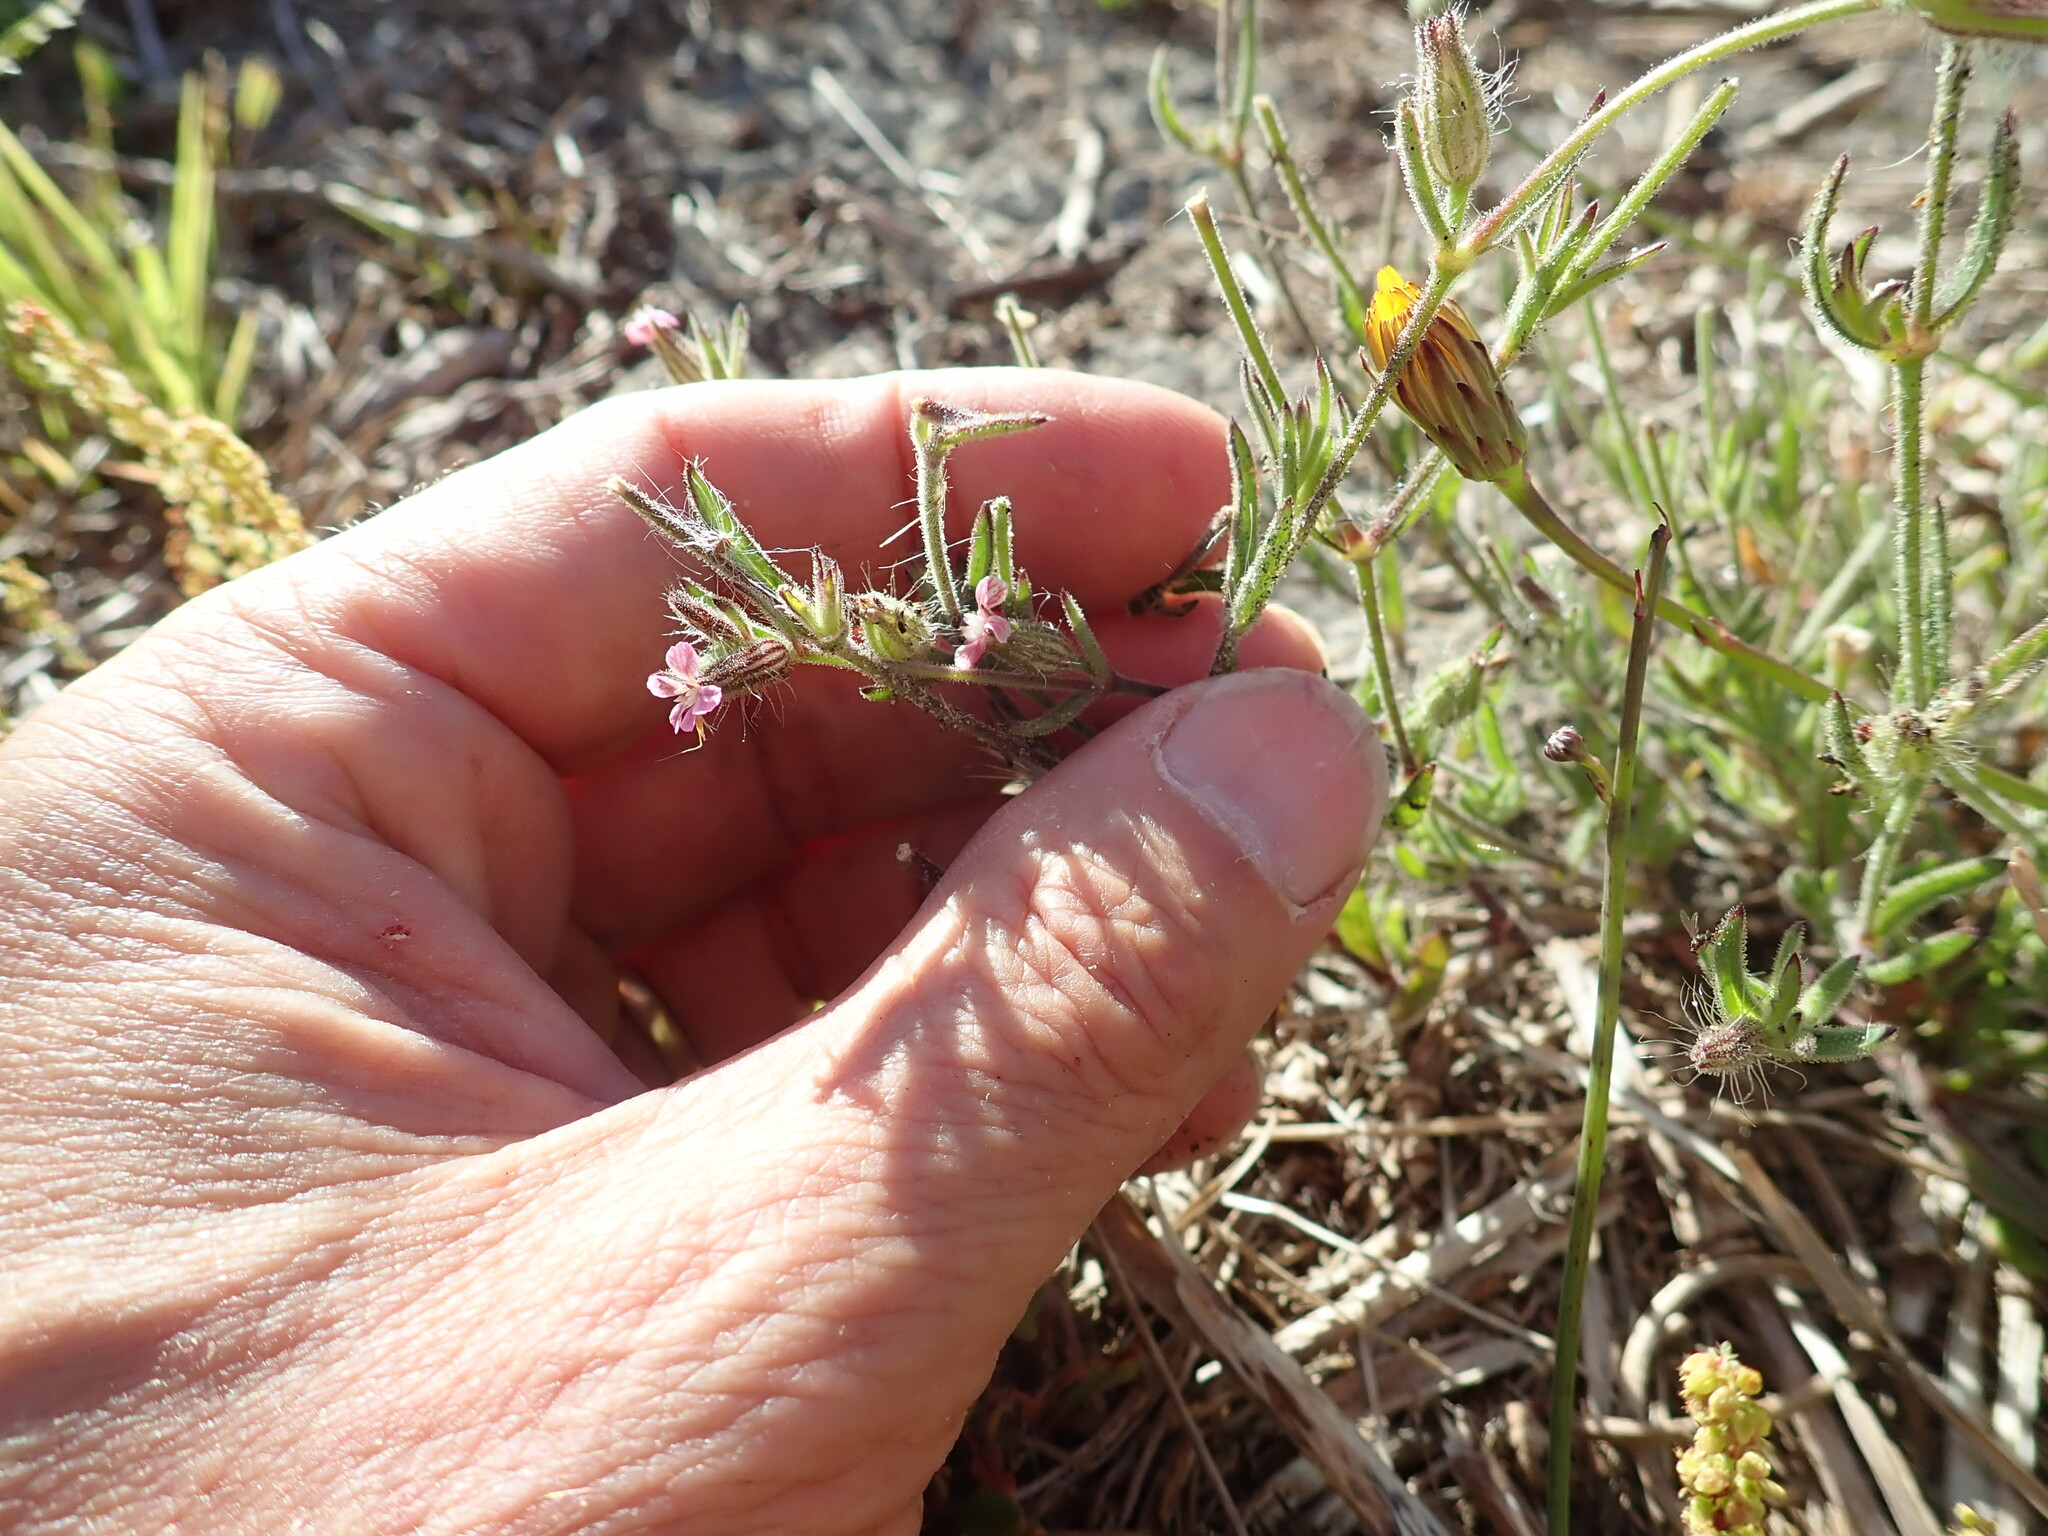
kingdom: Plantae
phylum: Tracheophyta
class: Magnoliopsida
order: Caryophyllales
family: Caryophyllaceae
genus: Silene
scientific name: Silene gallica
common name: Small-flowered catchfly
